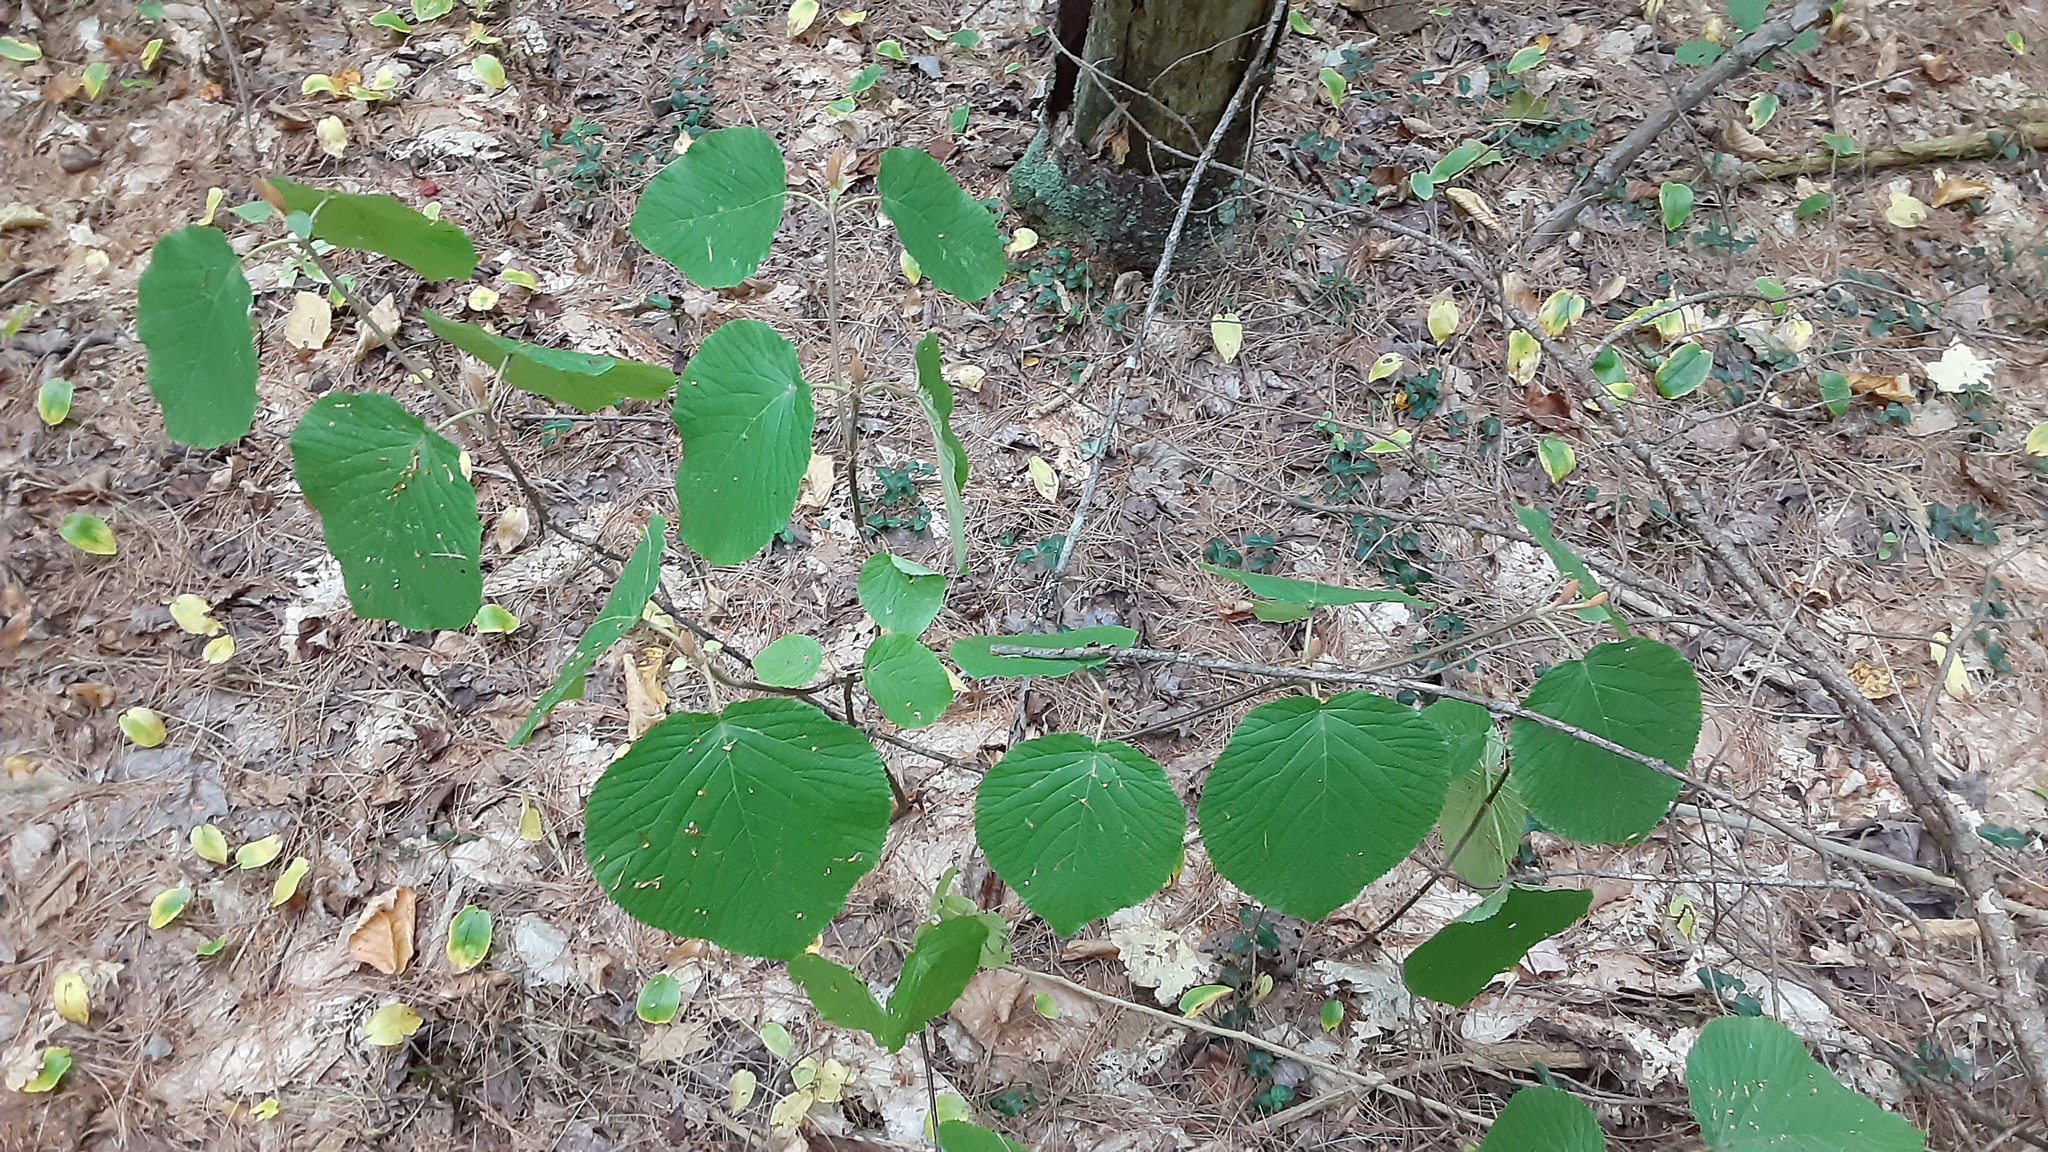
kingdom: Plantae
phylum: Tracheophyta
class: Magnoliopsida
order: Dipsacales
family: Viburnaceae
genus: Viburnum
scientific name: Viburnum lantanoides
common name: Hobblebush
